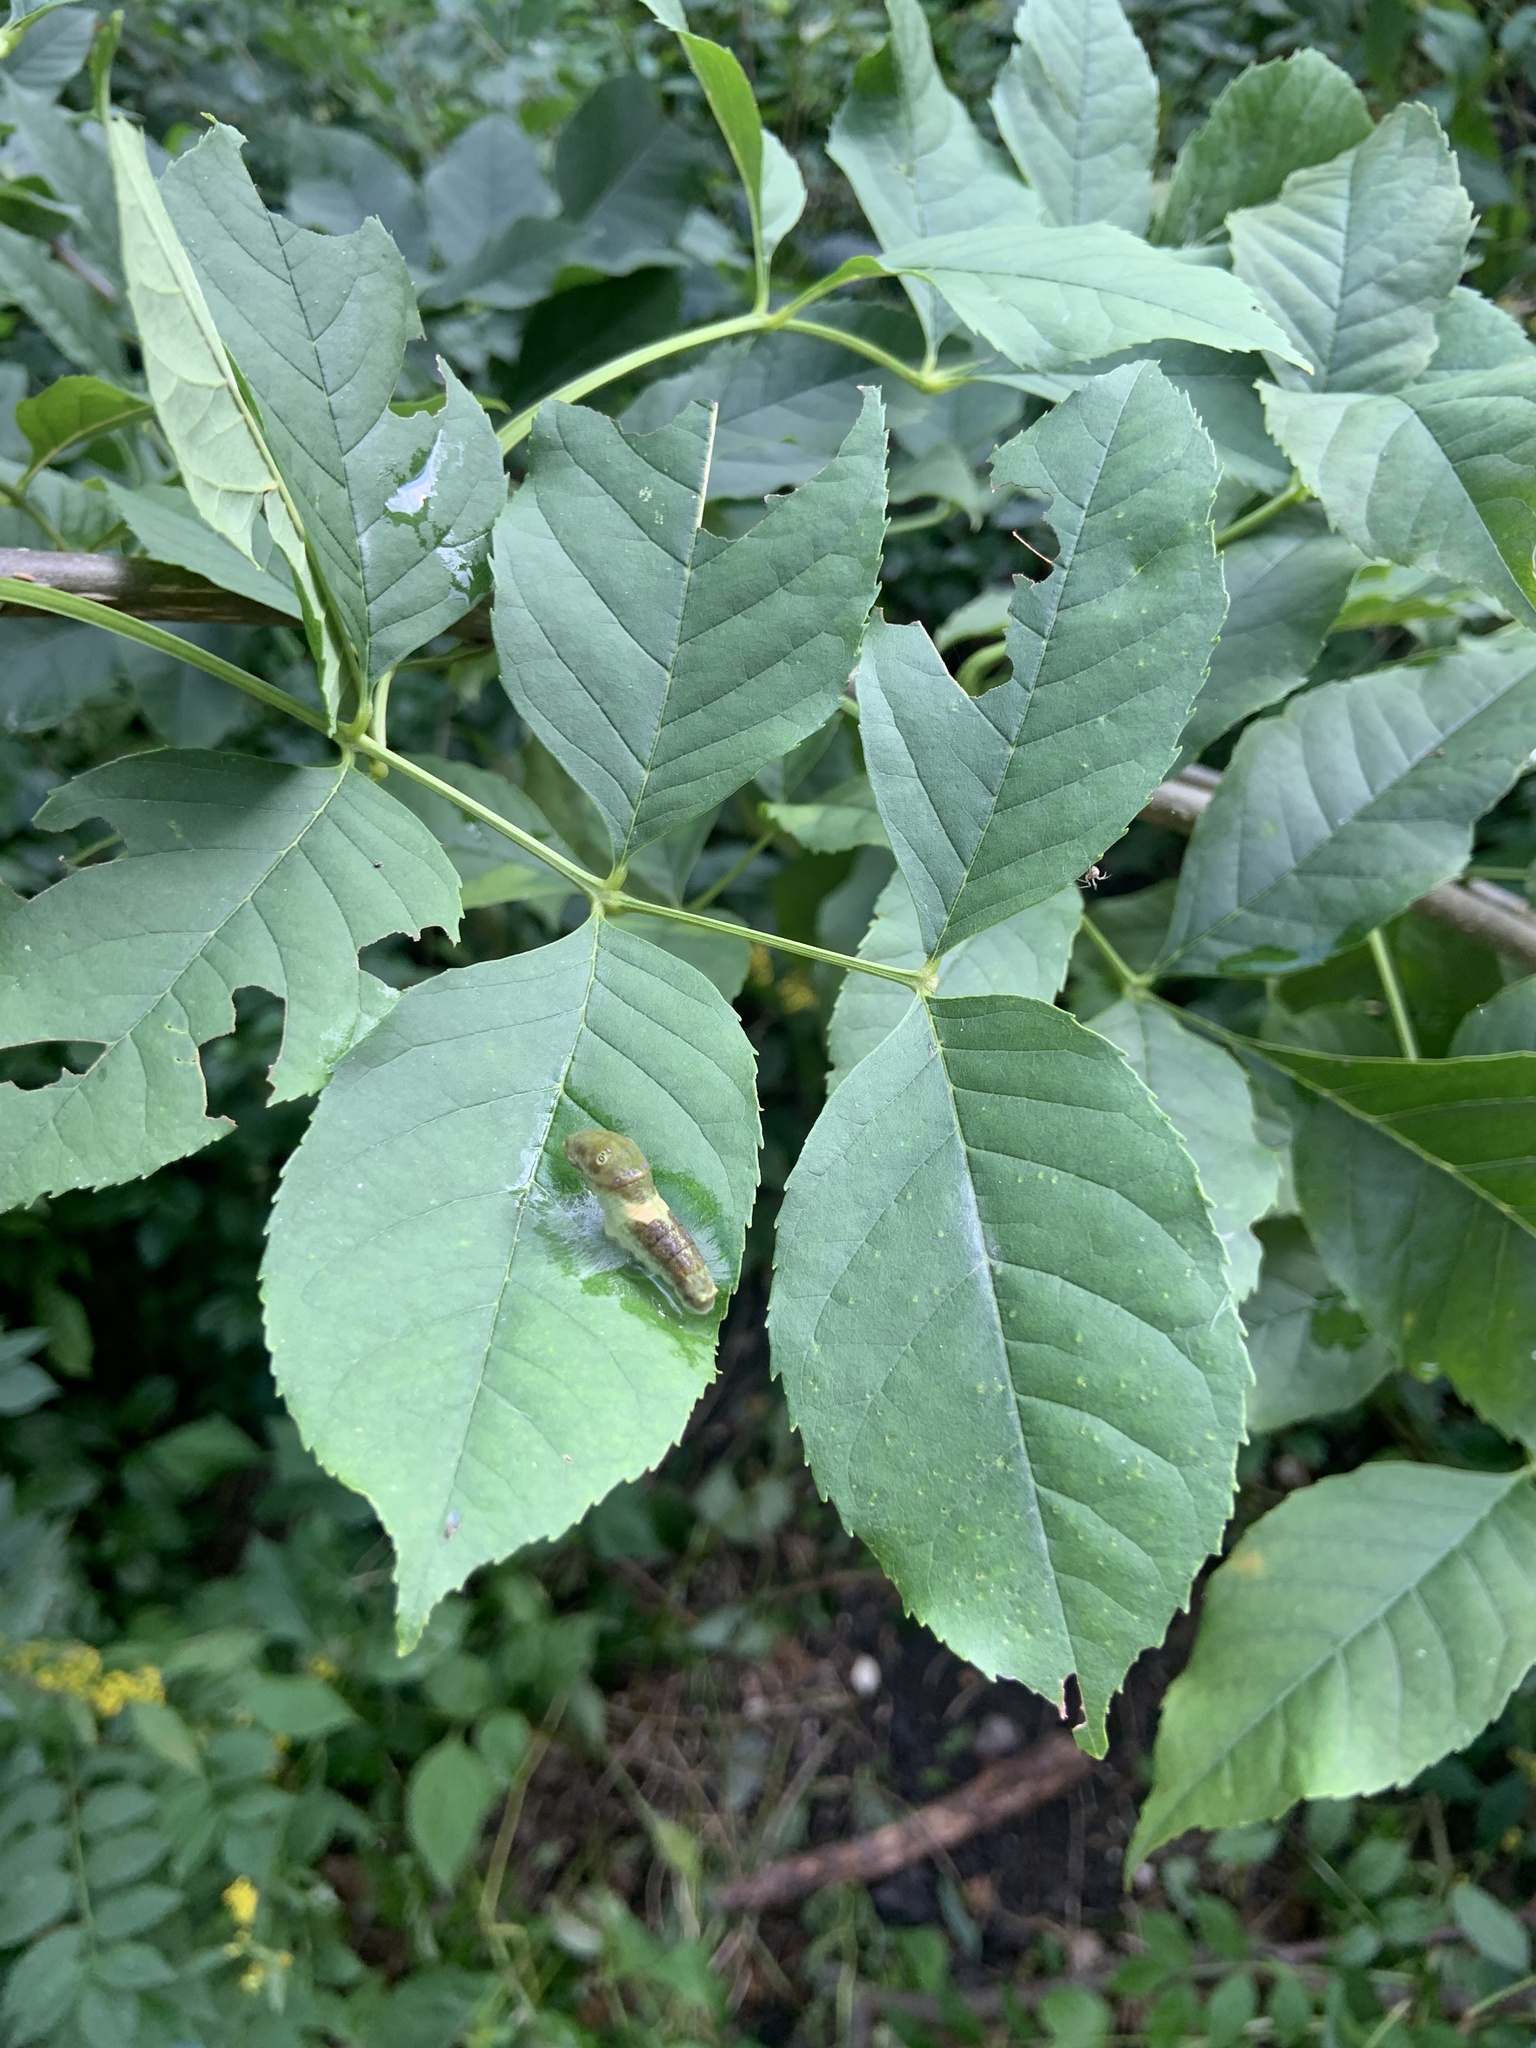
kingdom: Animalia
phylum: Arthropoda
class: Insecta
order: Lepidoptera
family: Papilionidae
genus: Papilio
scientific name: Papilio glaucus
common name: Tiger swallowtail
